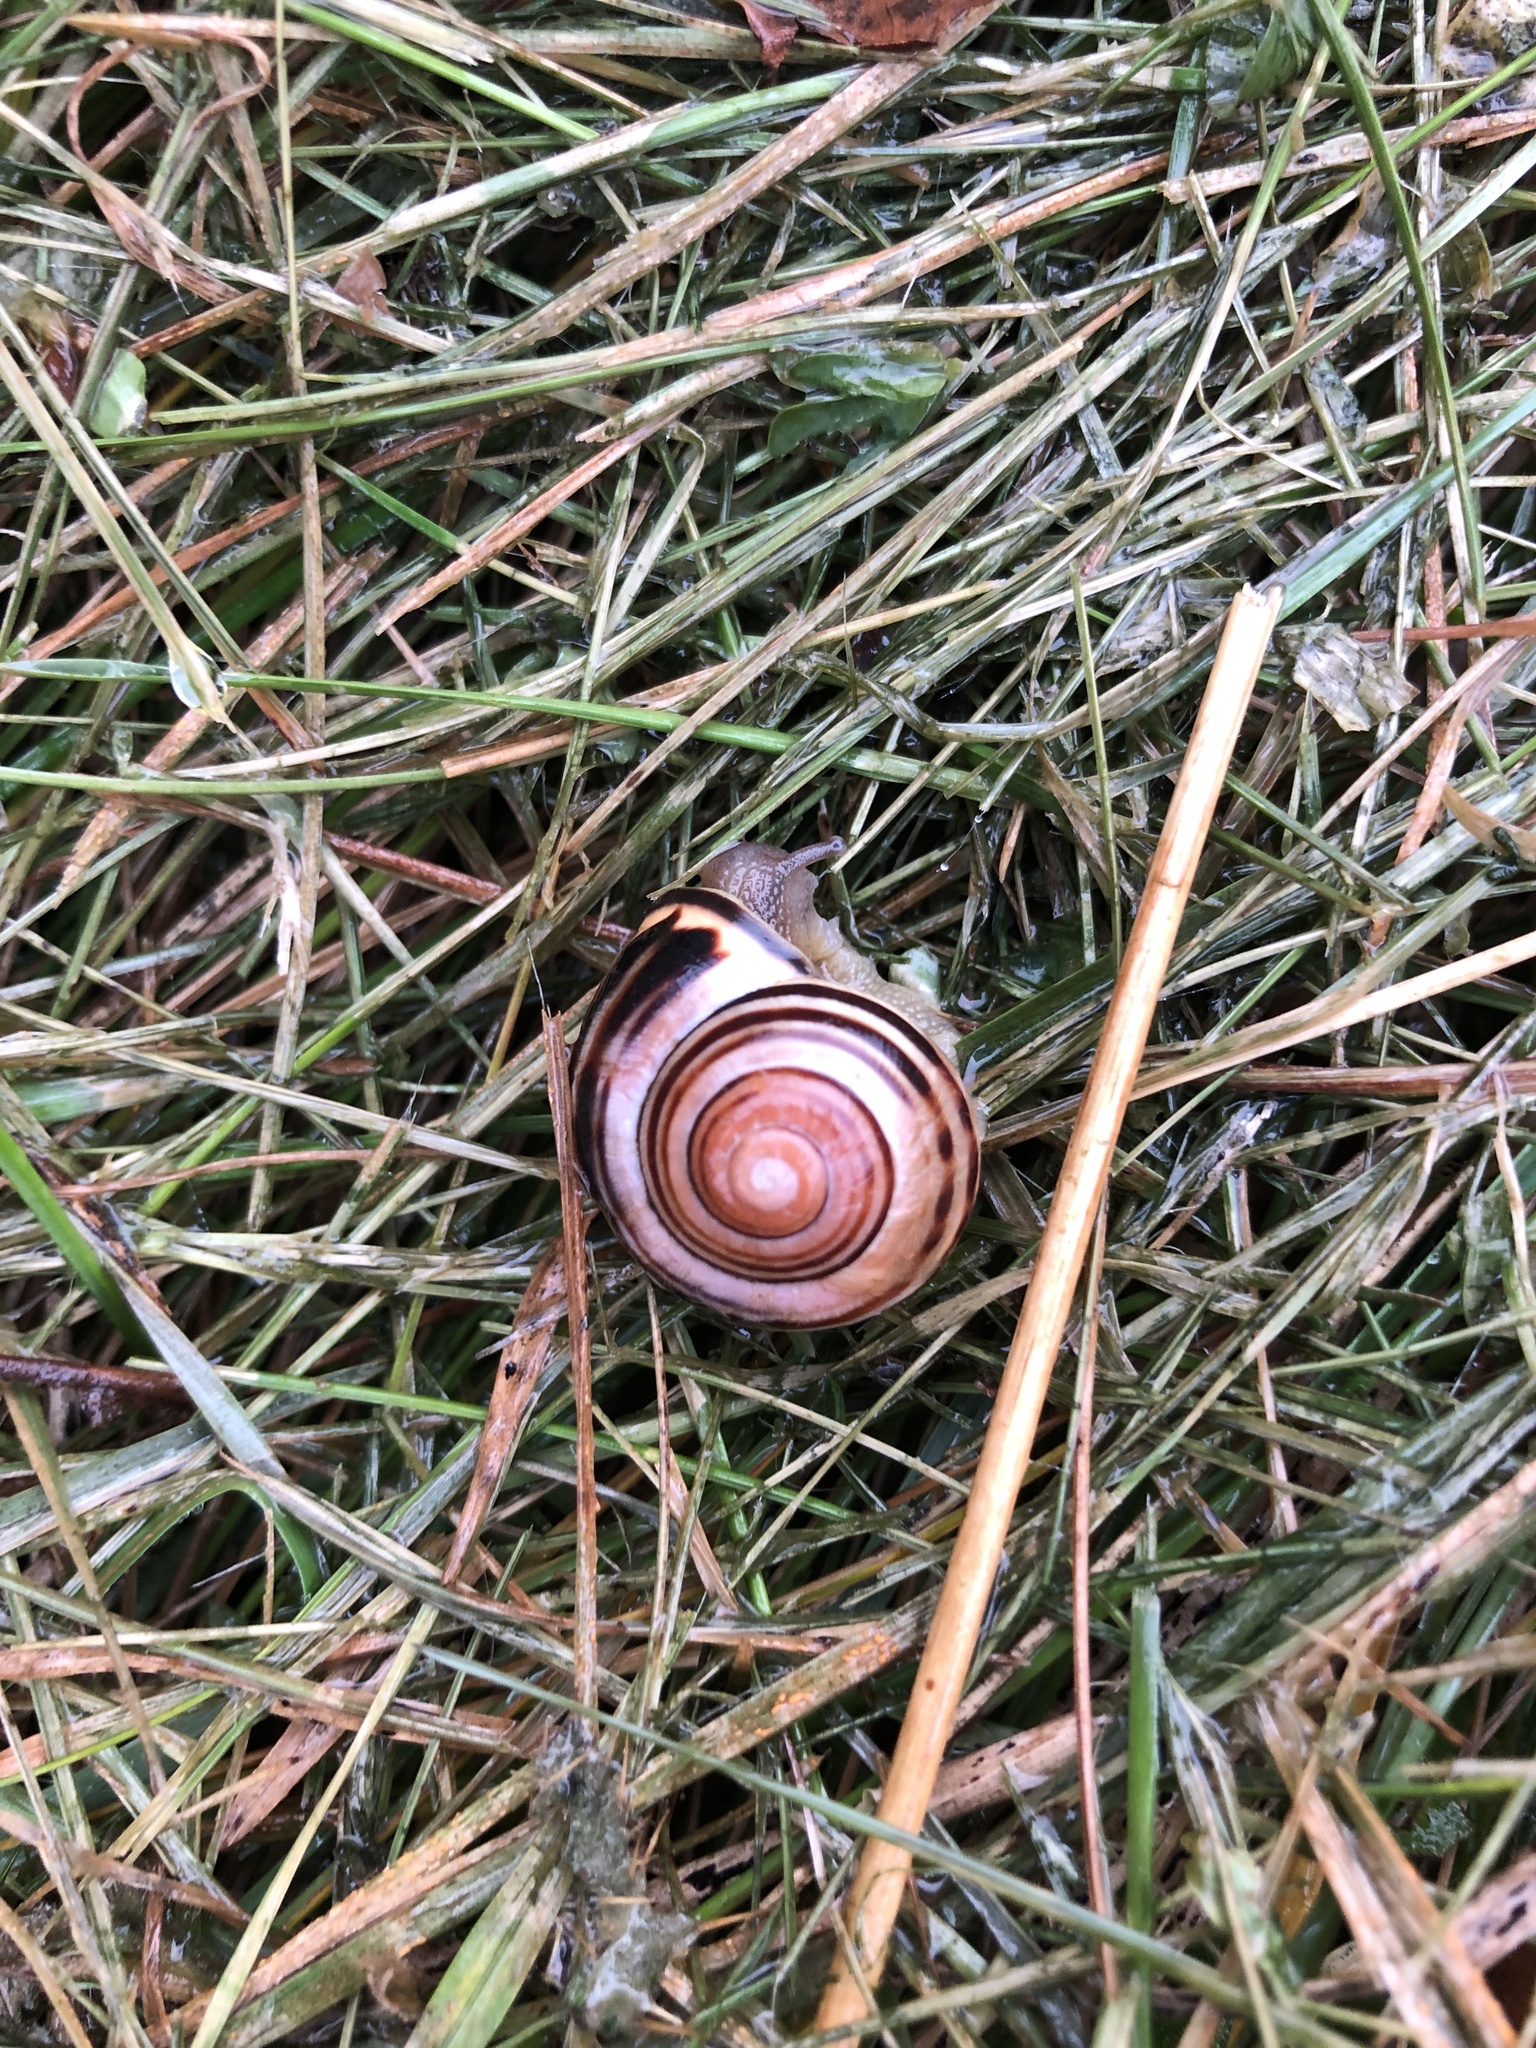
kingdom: Animalia
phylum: Mollusca
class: Gastropoda
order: Stylommatophora
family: Helicidae
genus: Cepaea
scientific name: Cepaea nemoralis
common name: Grovesnail
